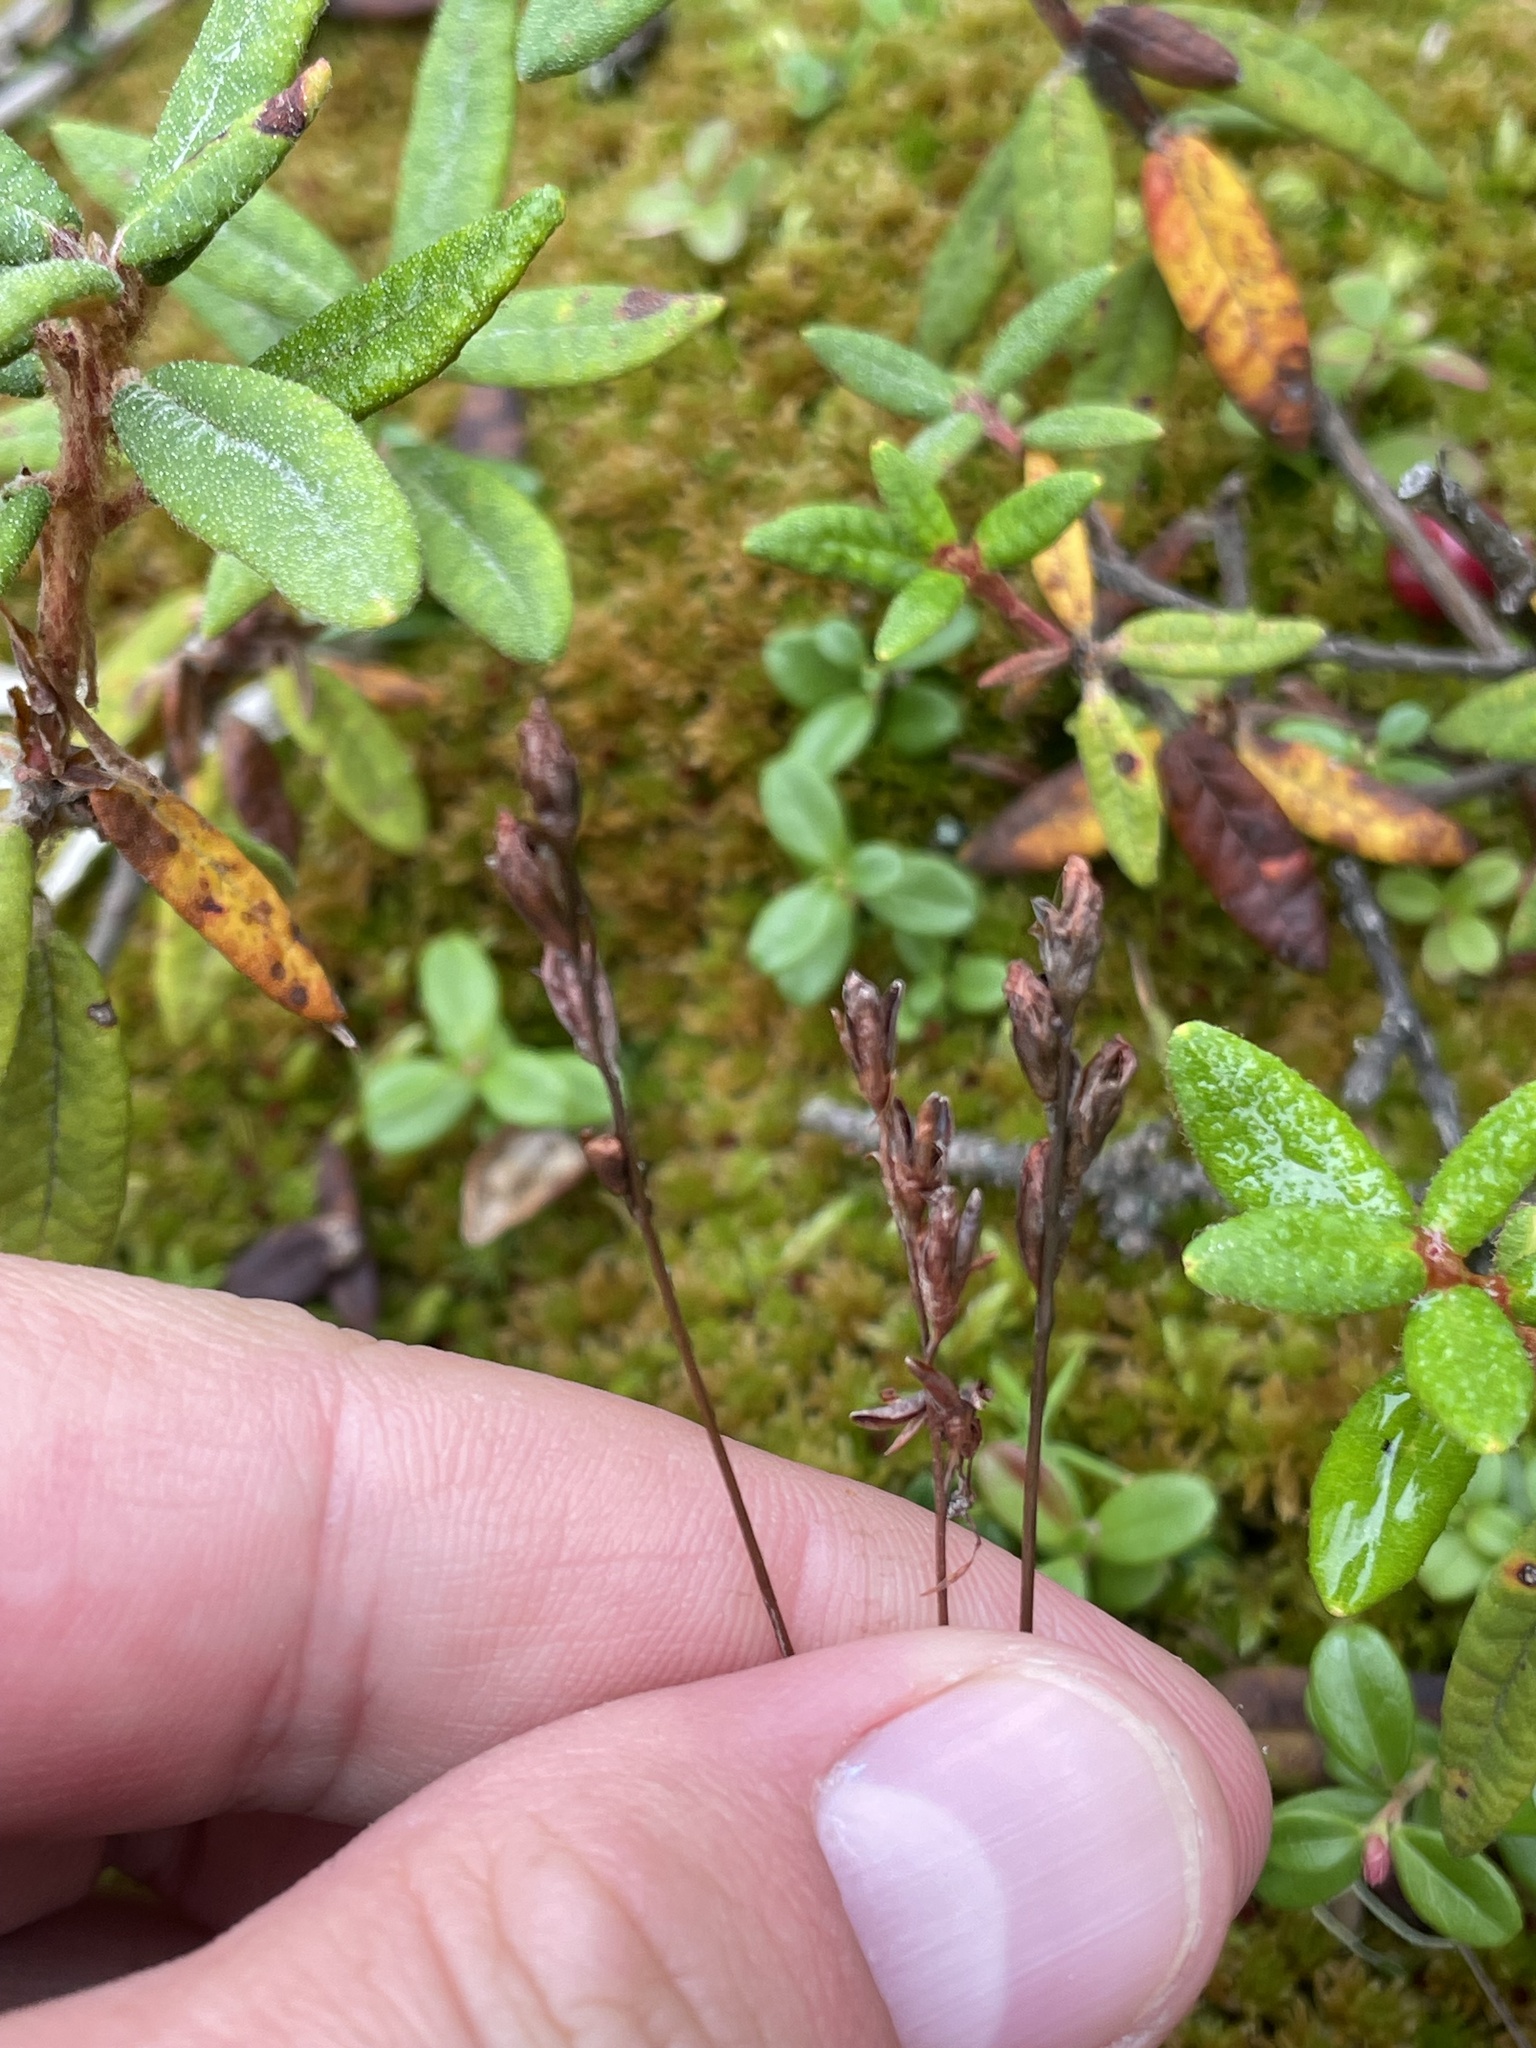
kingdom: Plantae
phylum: Tracheophyta
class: Magnoliopsida
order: Caryophyllales
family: Droseraceae
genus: Drosera
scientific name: Drosera rotundifolia
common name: Round-leaved sundew
